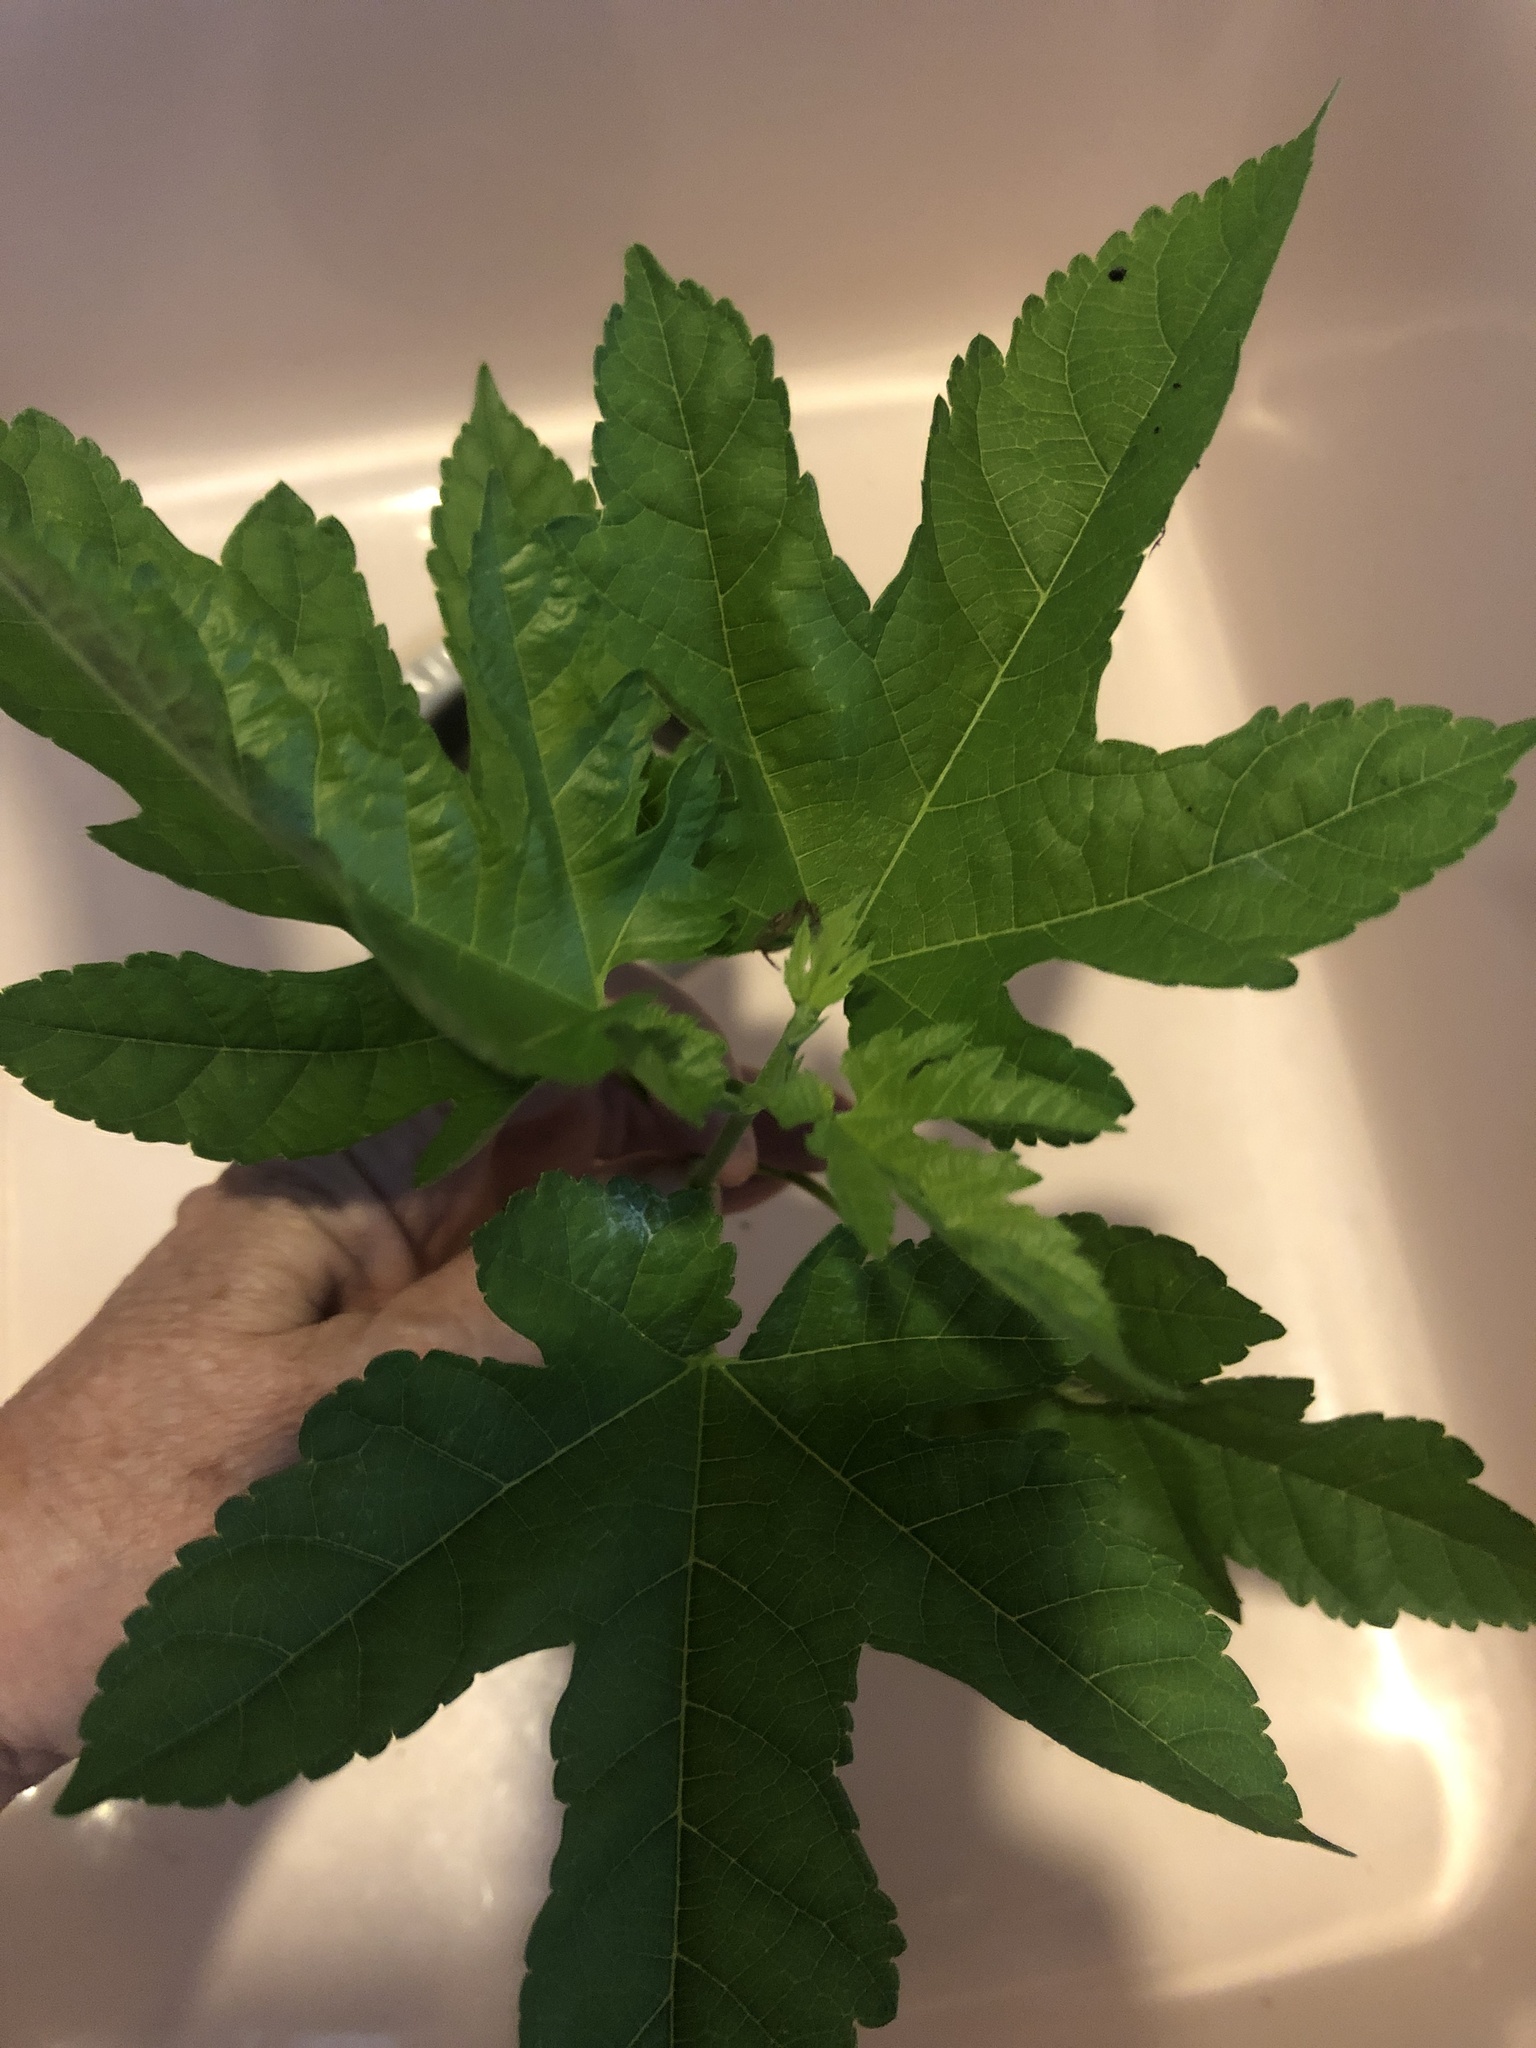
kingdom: Plantae
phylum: Tracheophyta
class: Magnoliopsida
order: Rosales
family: Moraceae
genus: Morus
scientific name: Morus indica
